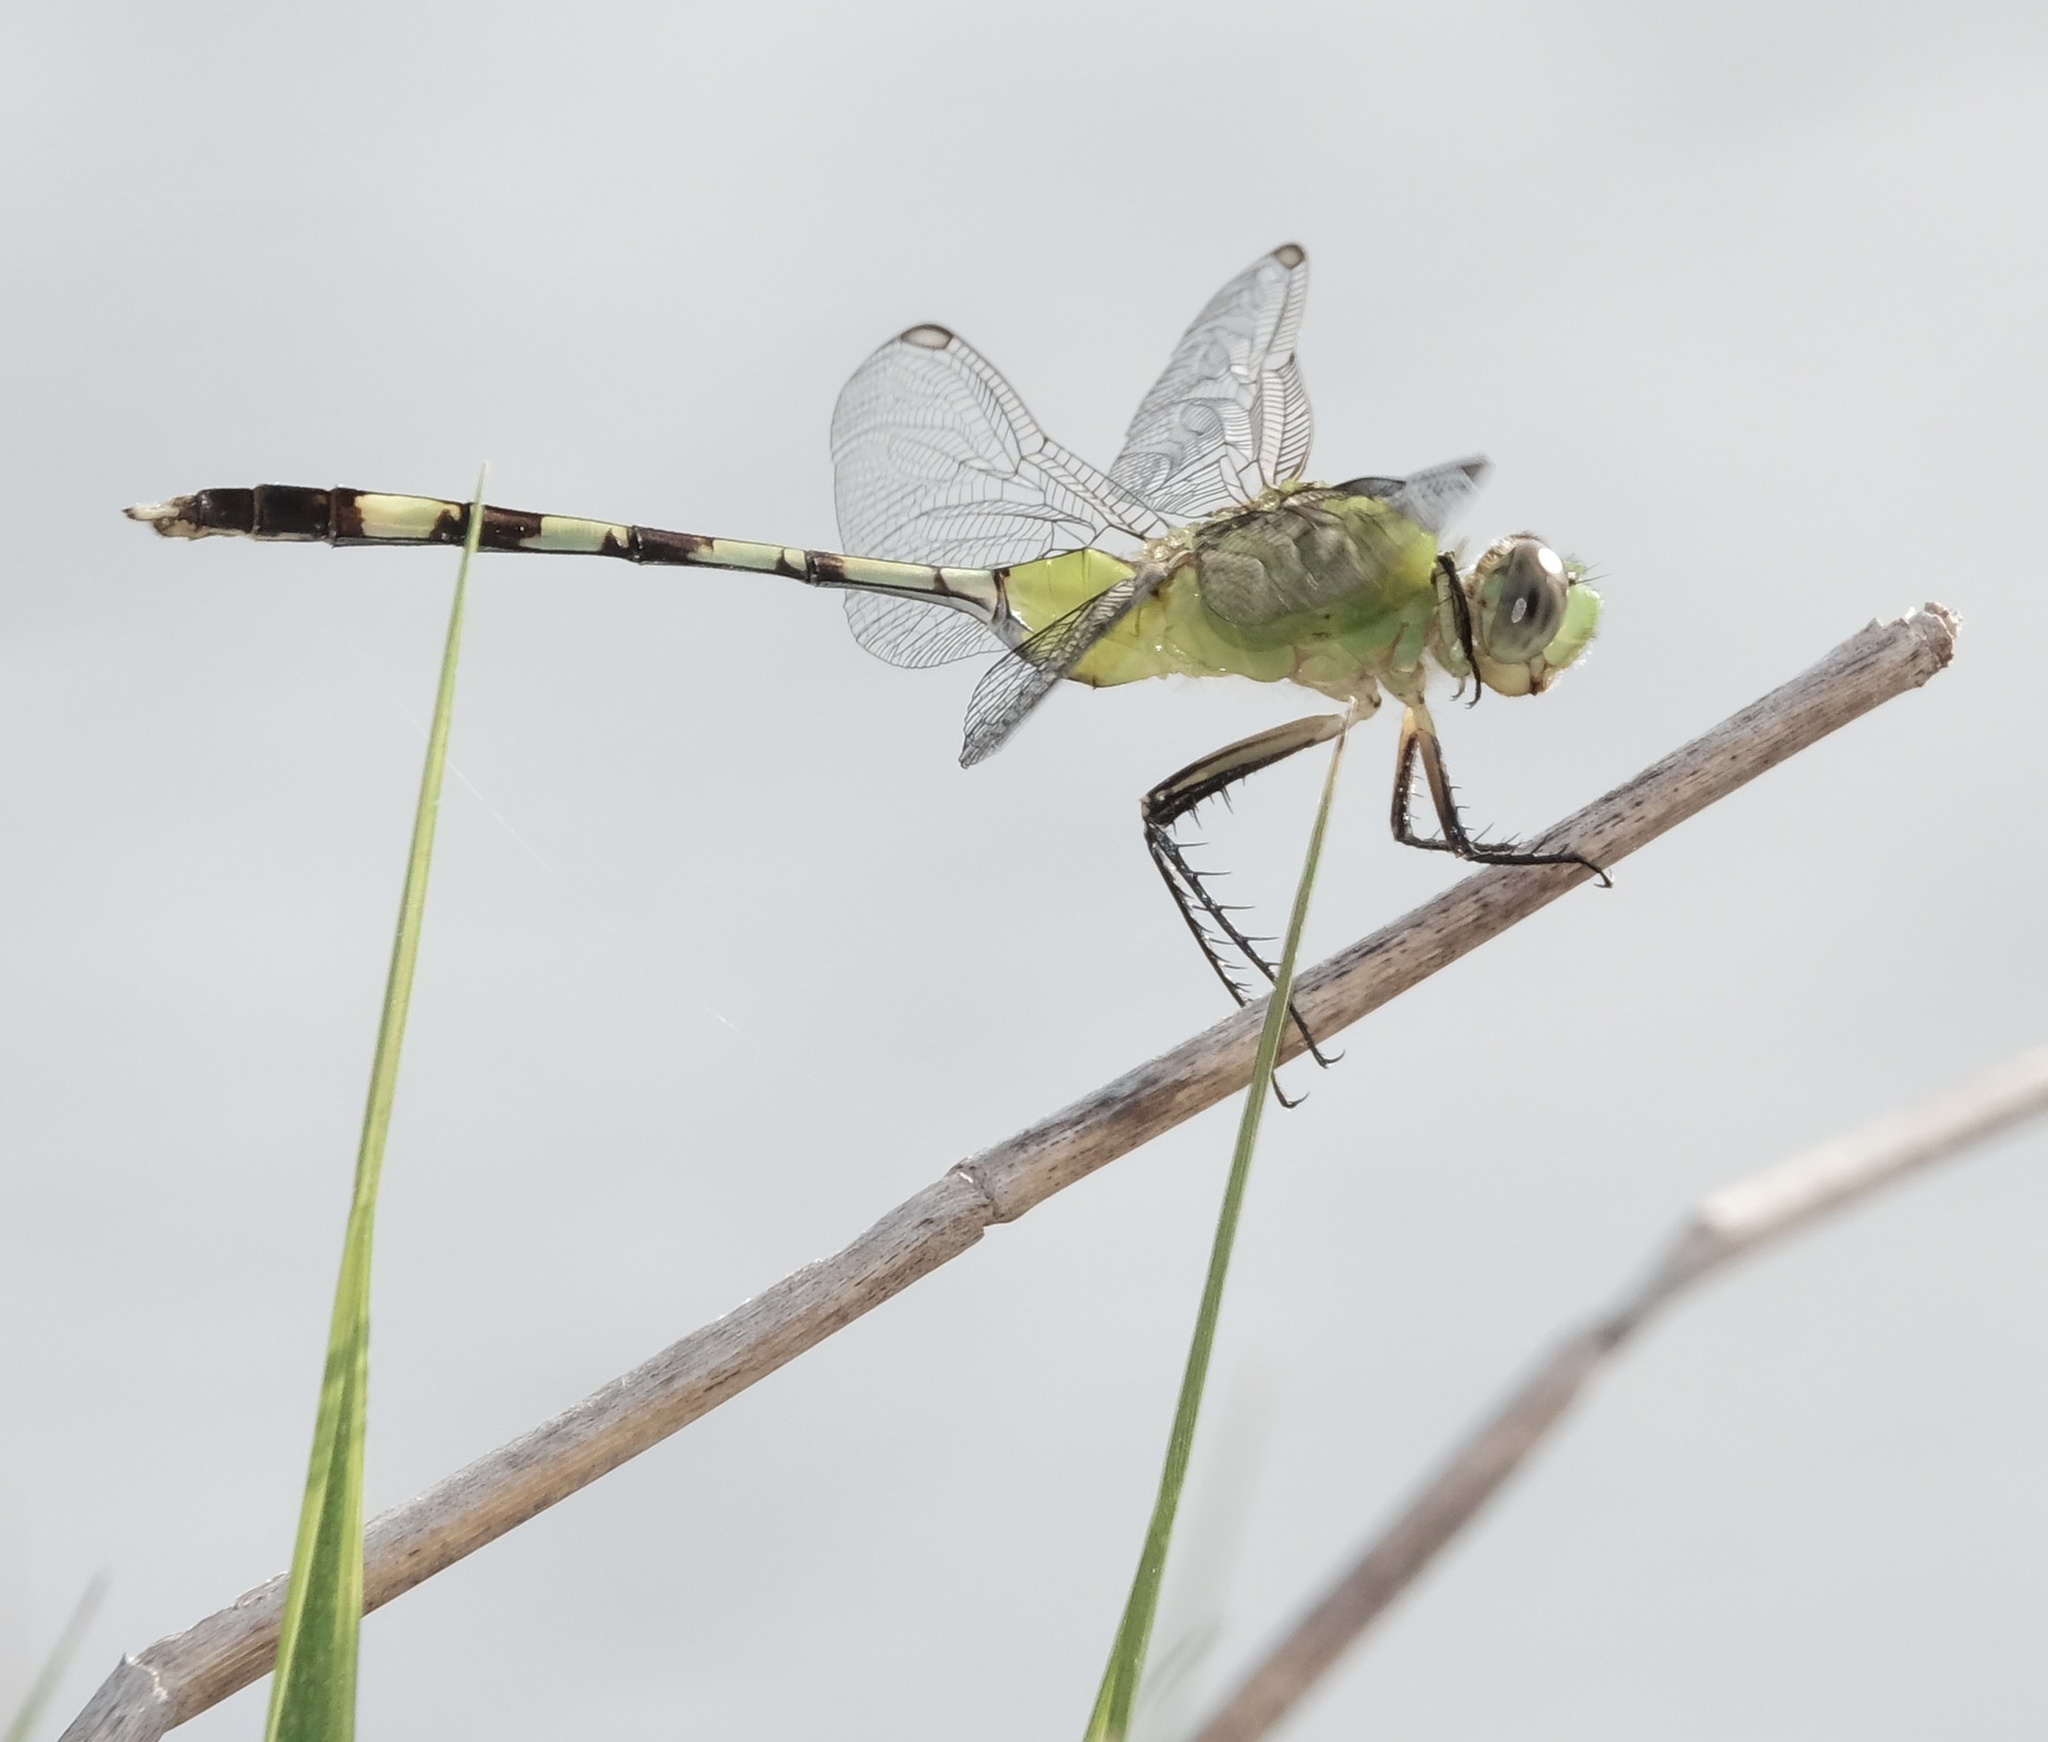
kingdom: Animalia
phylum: Arthropoda
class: Insecta
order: Odonata
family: Libellulidae
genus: Erythemis
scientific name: Erythemis vesiculosa
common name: Great pondhawk
